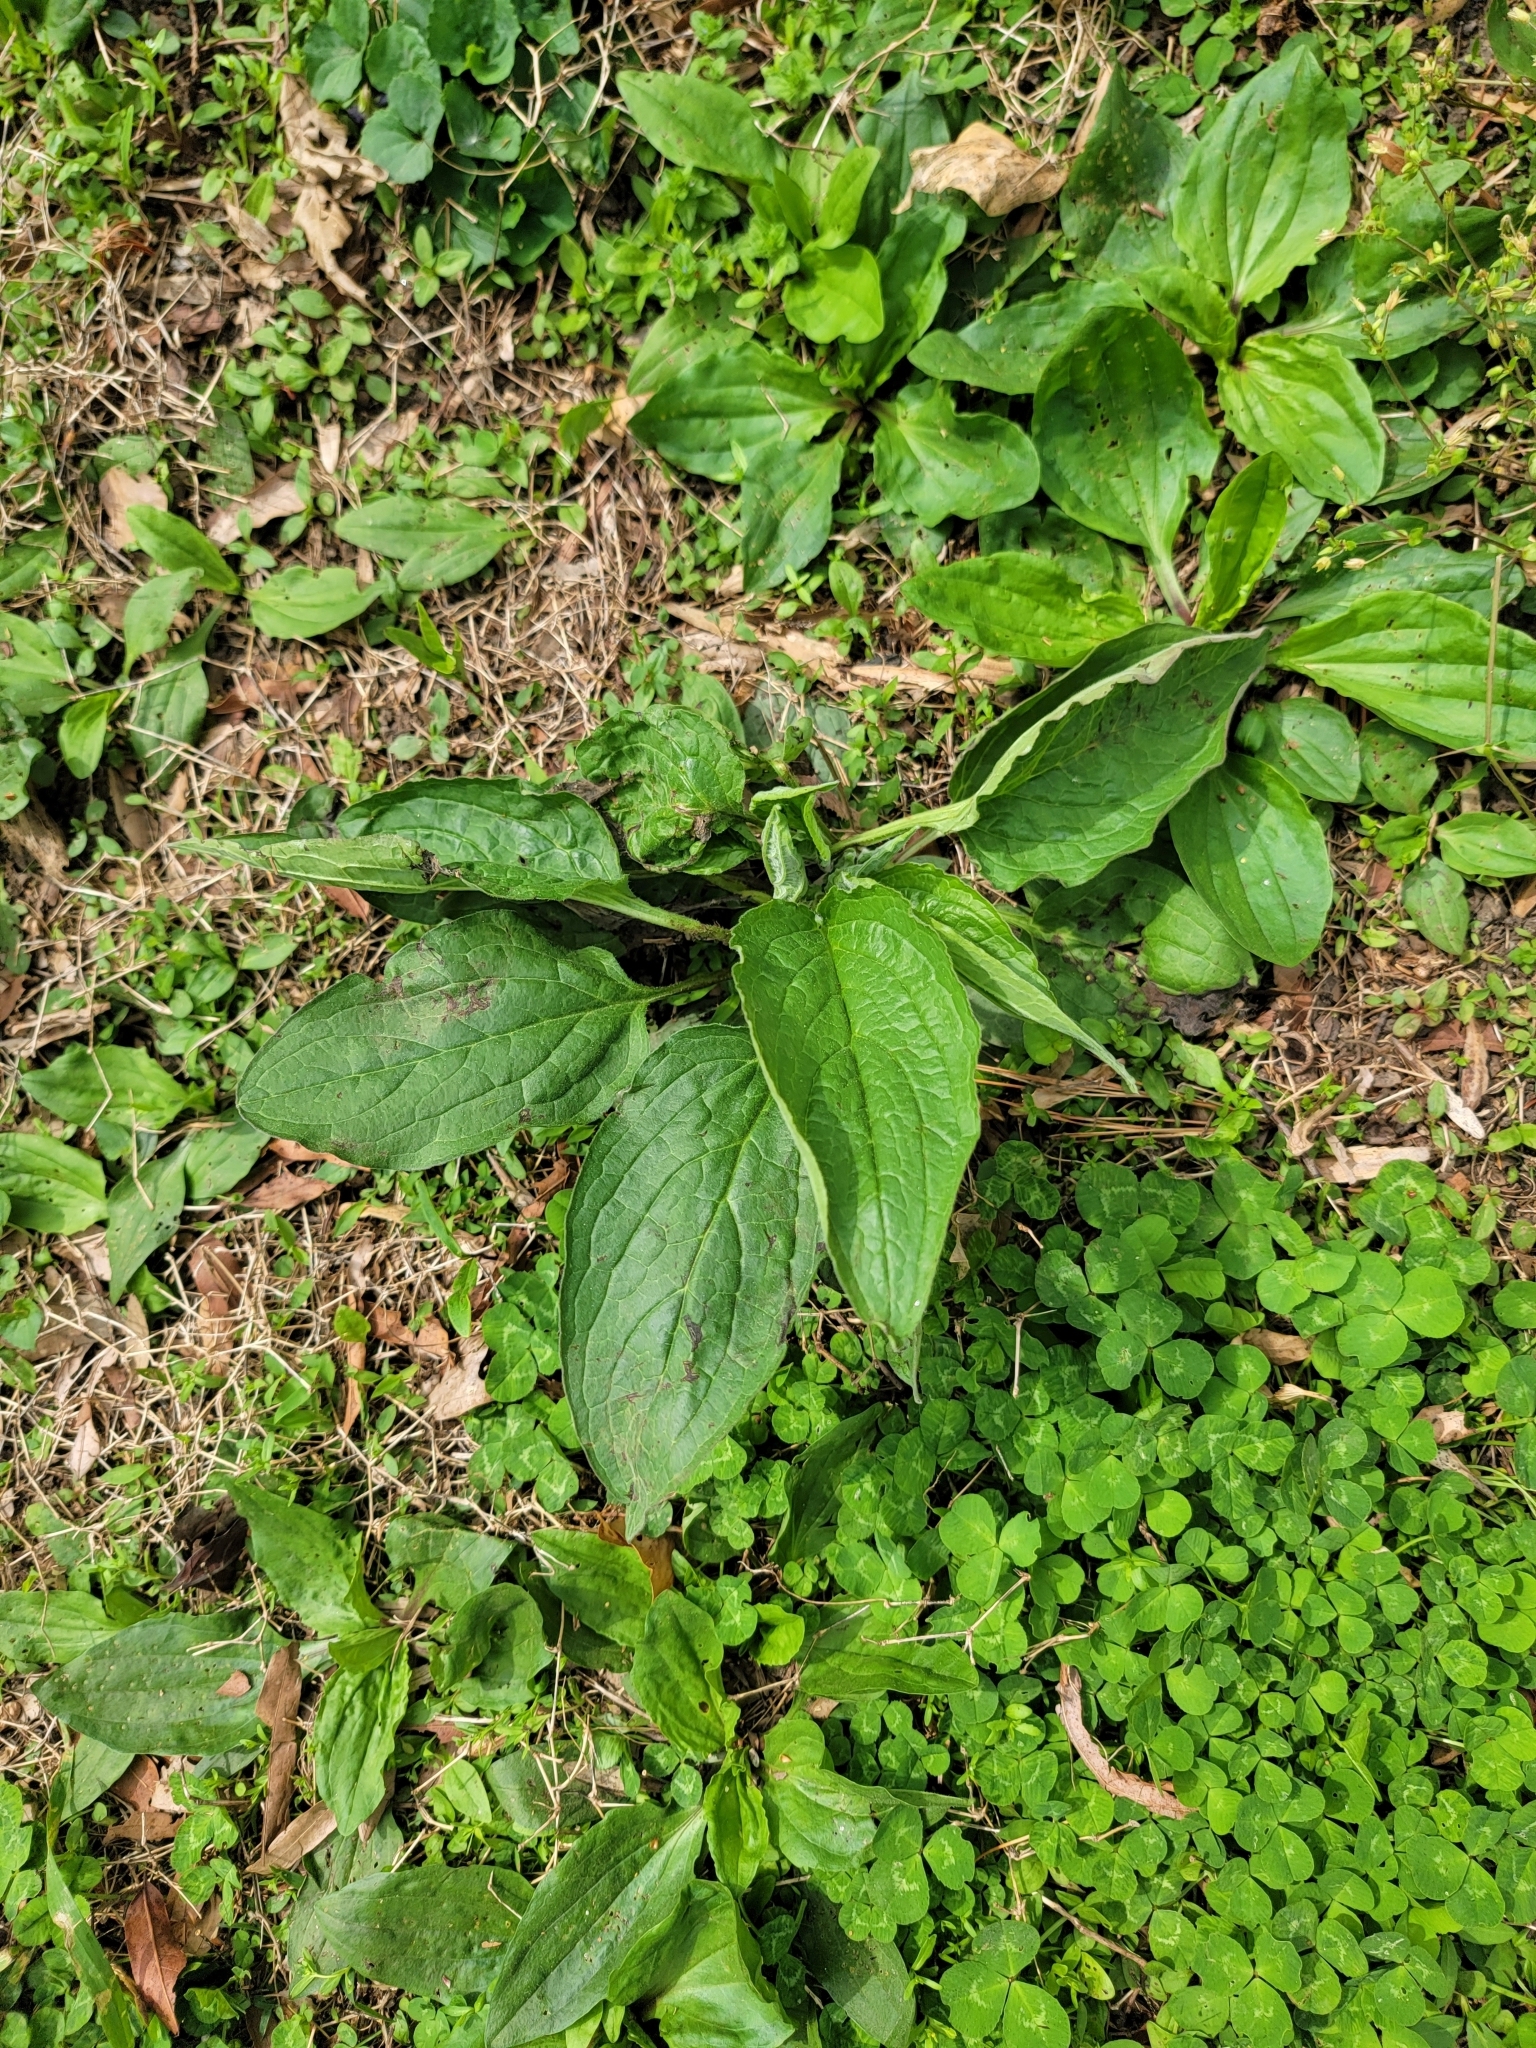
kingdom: Plantae
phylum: Tracheophyta
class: Magnoliopsida
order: Boraginales
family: Boraginaceae
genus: Hackelia
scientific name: Hackelia virginiana
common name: Beggar's-lice
